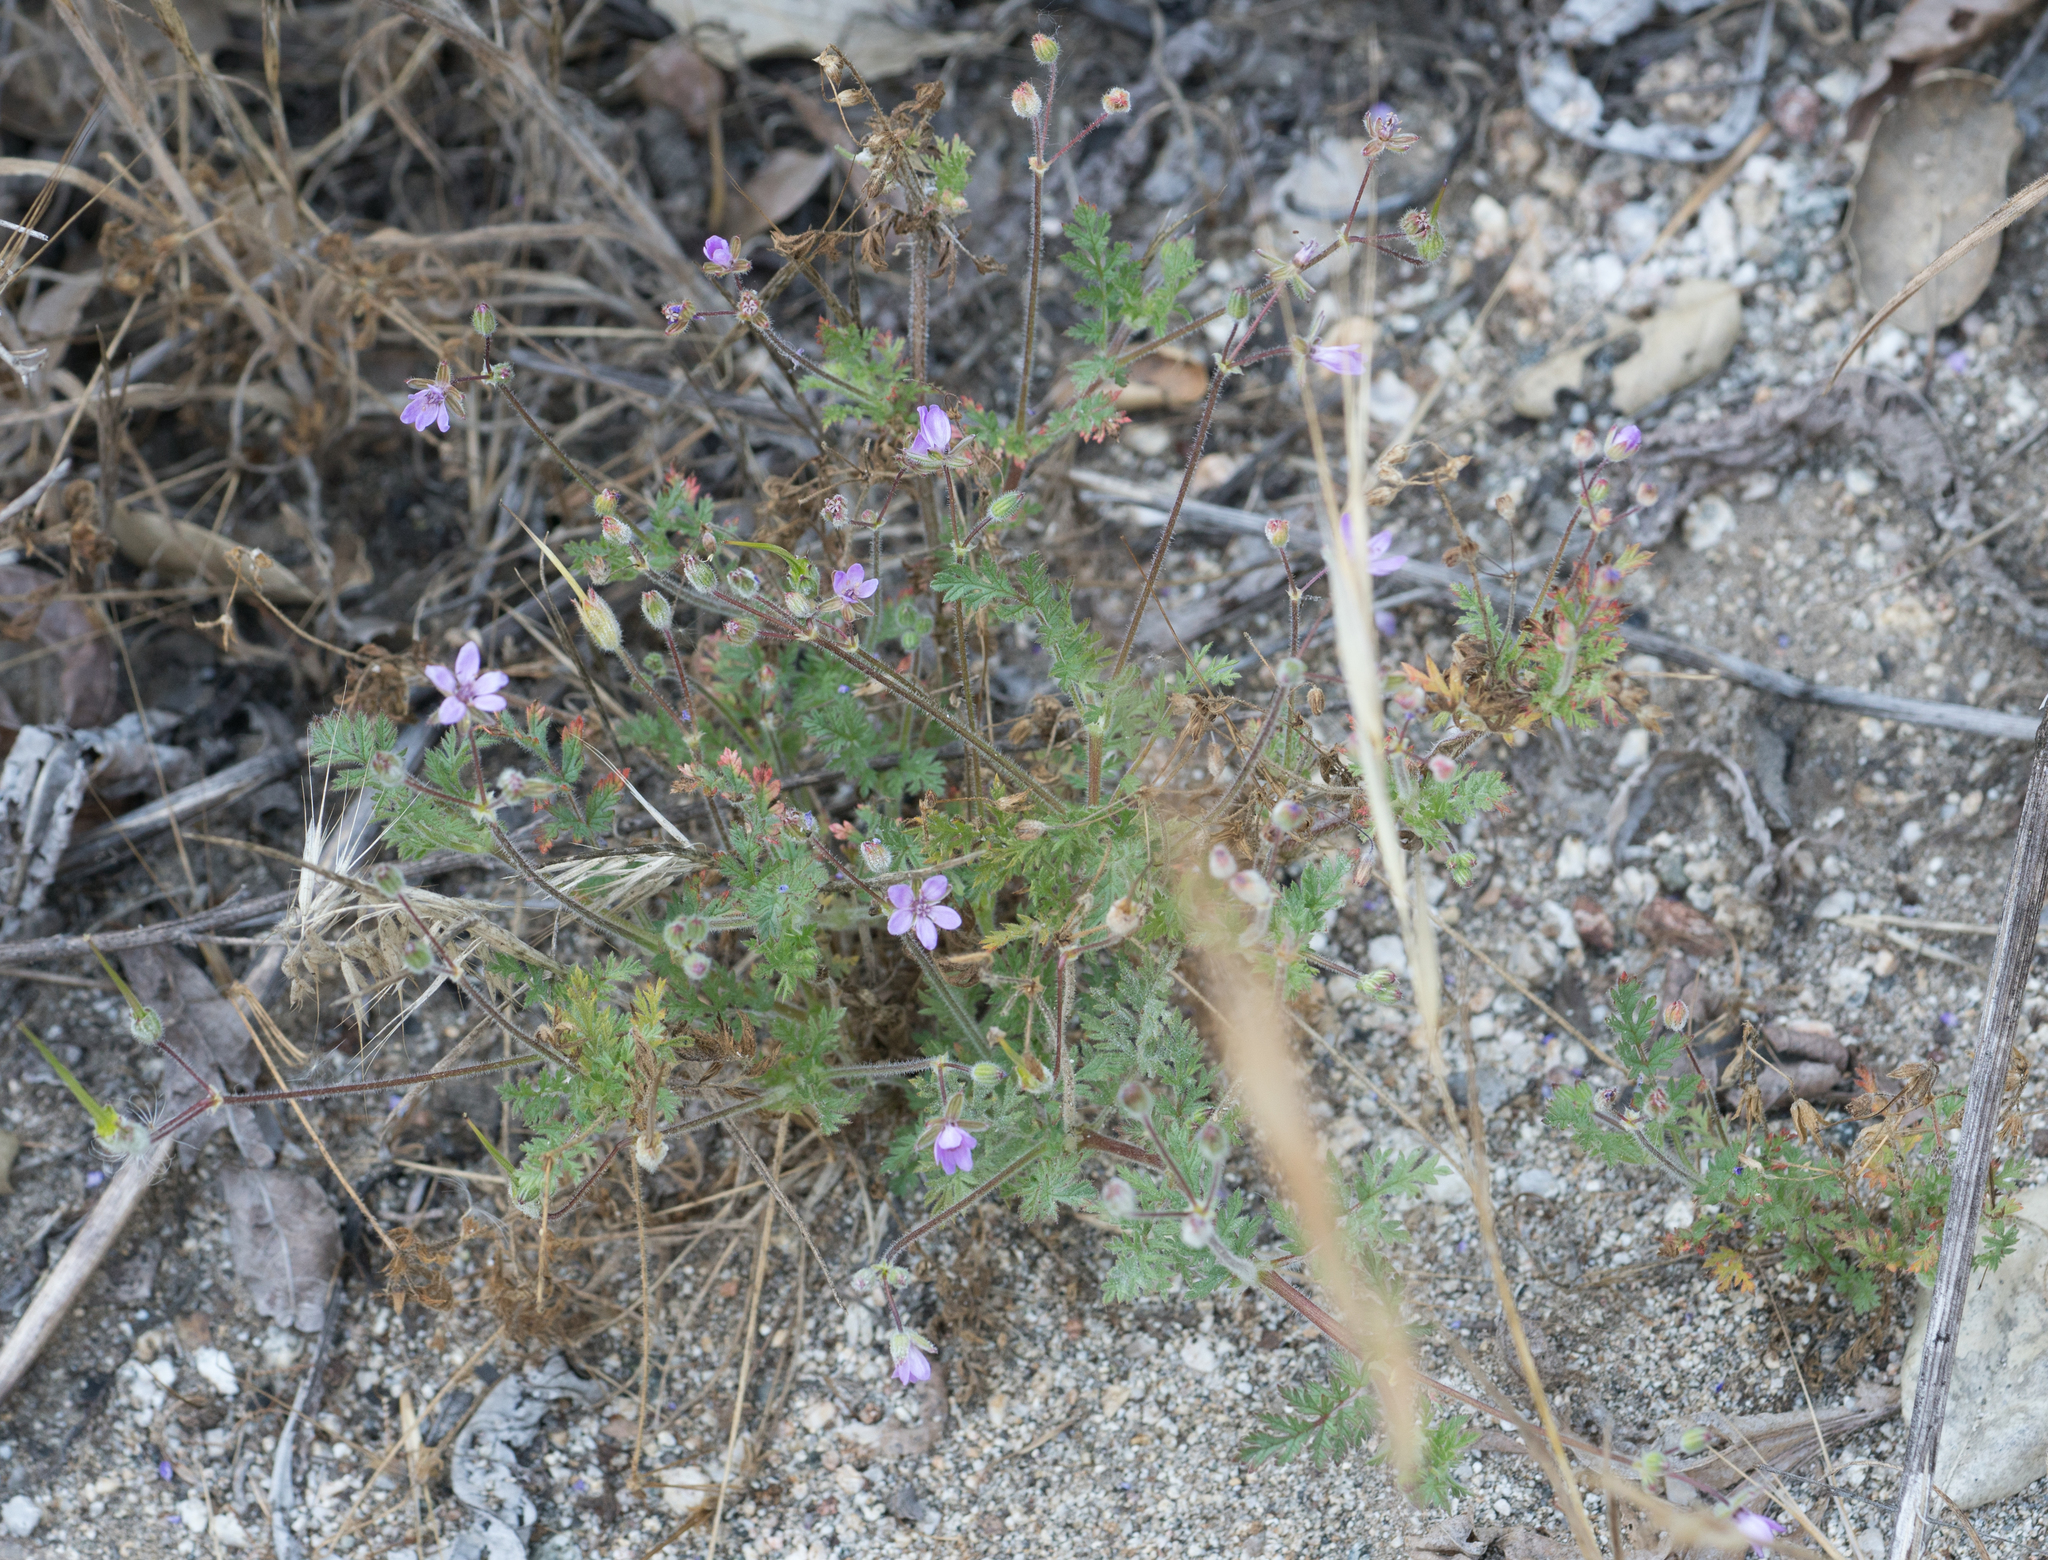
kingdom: Plantae
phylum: Tracheophyta
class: Magnoliopsida
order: Geraniales
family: Geraniaceae
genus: Erodium
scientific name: Erodium cicutarium
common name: Common stork's-bill
